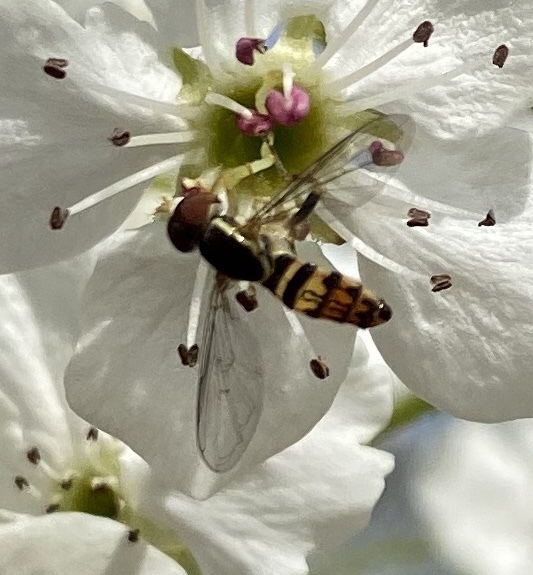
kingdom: Animalia
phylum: Arthropoda
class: Insecta
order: Diptera
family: Syrphidae
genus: Toxomerus
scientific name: Toxomerus geminatus
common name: Eastern calligrapher
